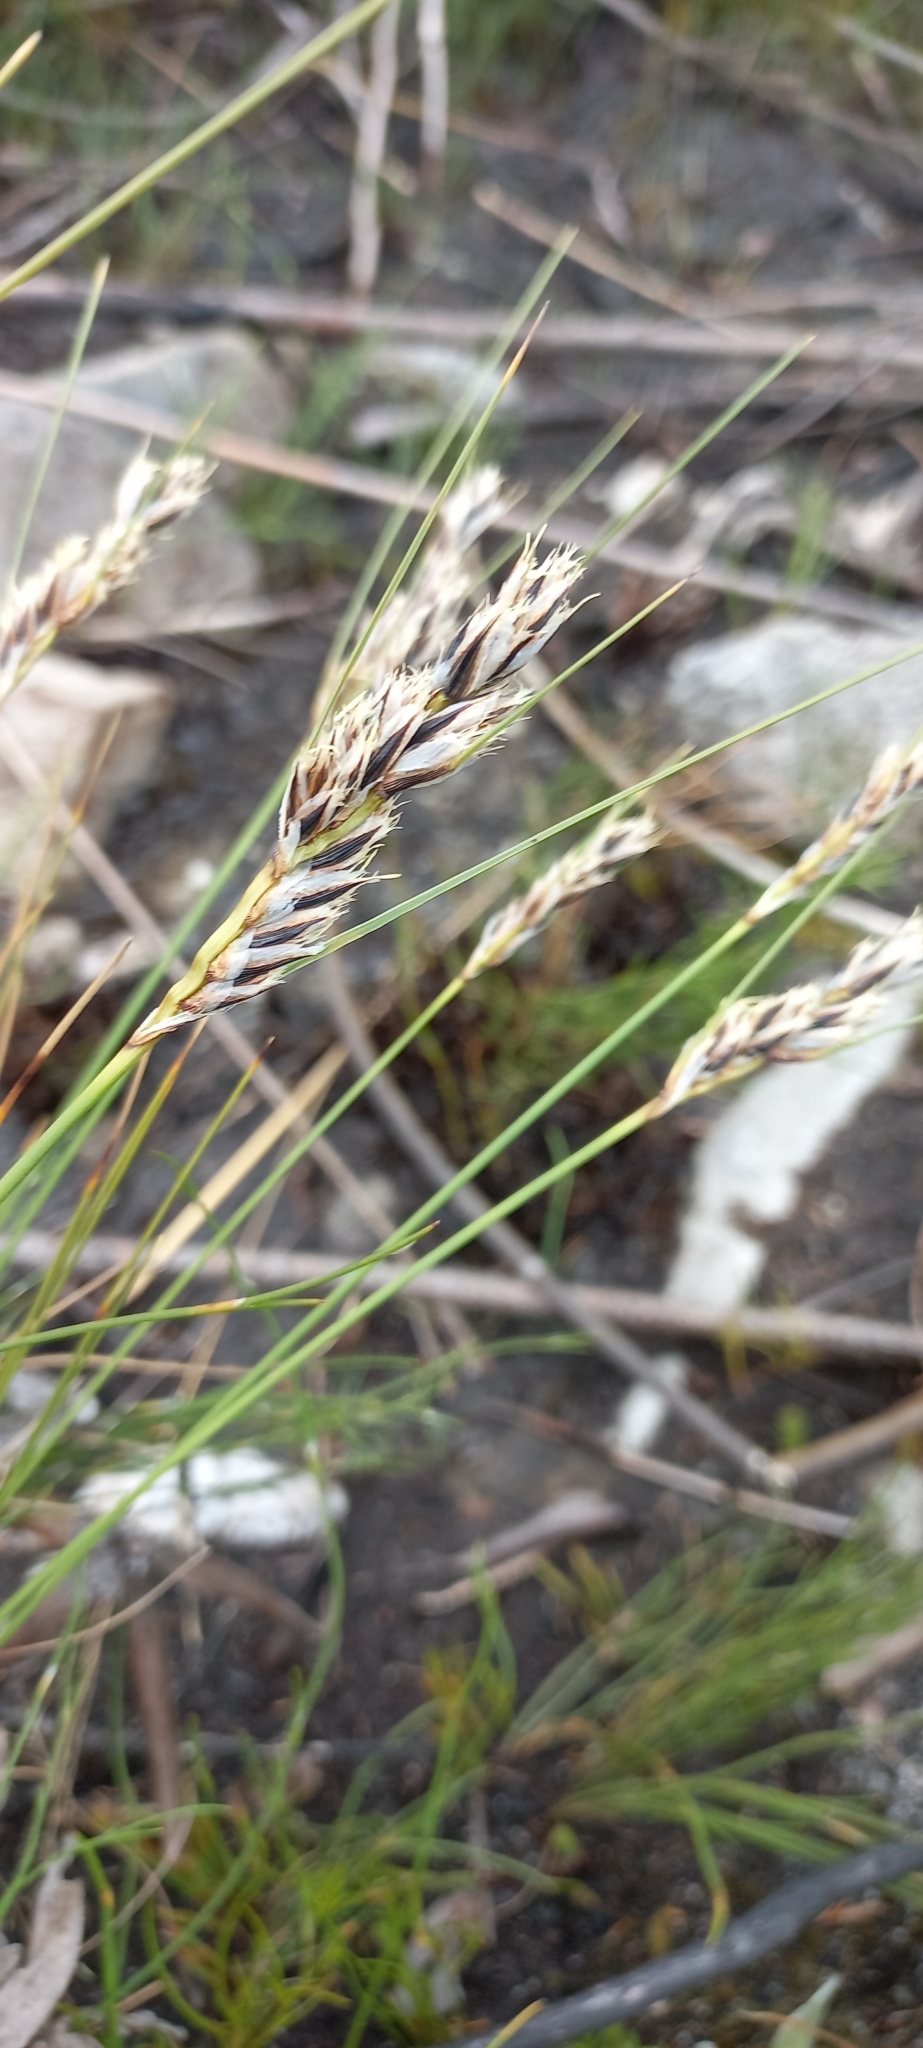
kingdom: Plantae
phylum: Tracheophyta
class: Liliopsida
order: Poales
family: Cyperaceae
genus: Ficinia
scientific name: Ficinia monticola
